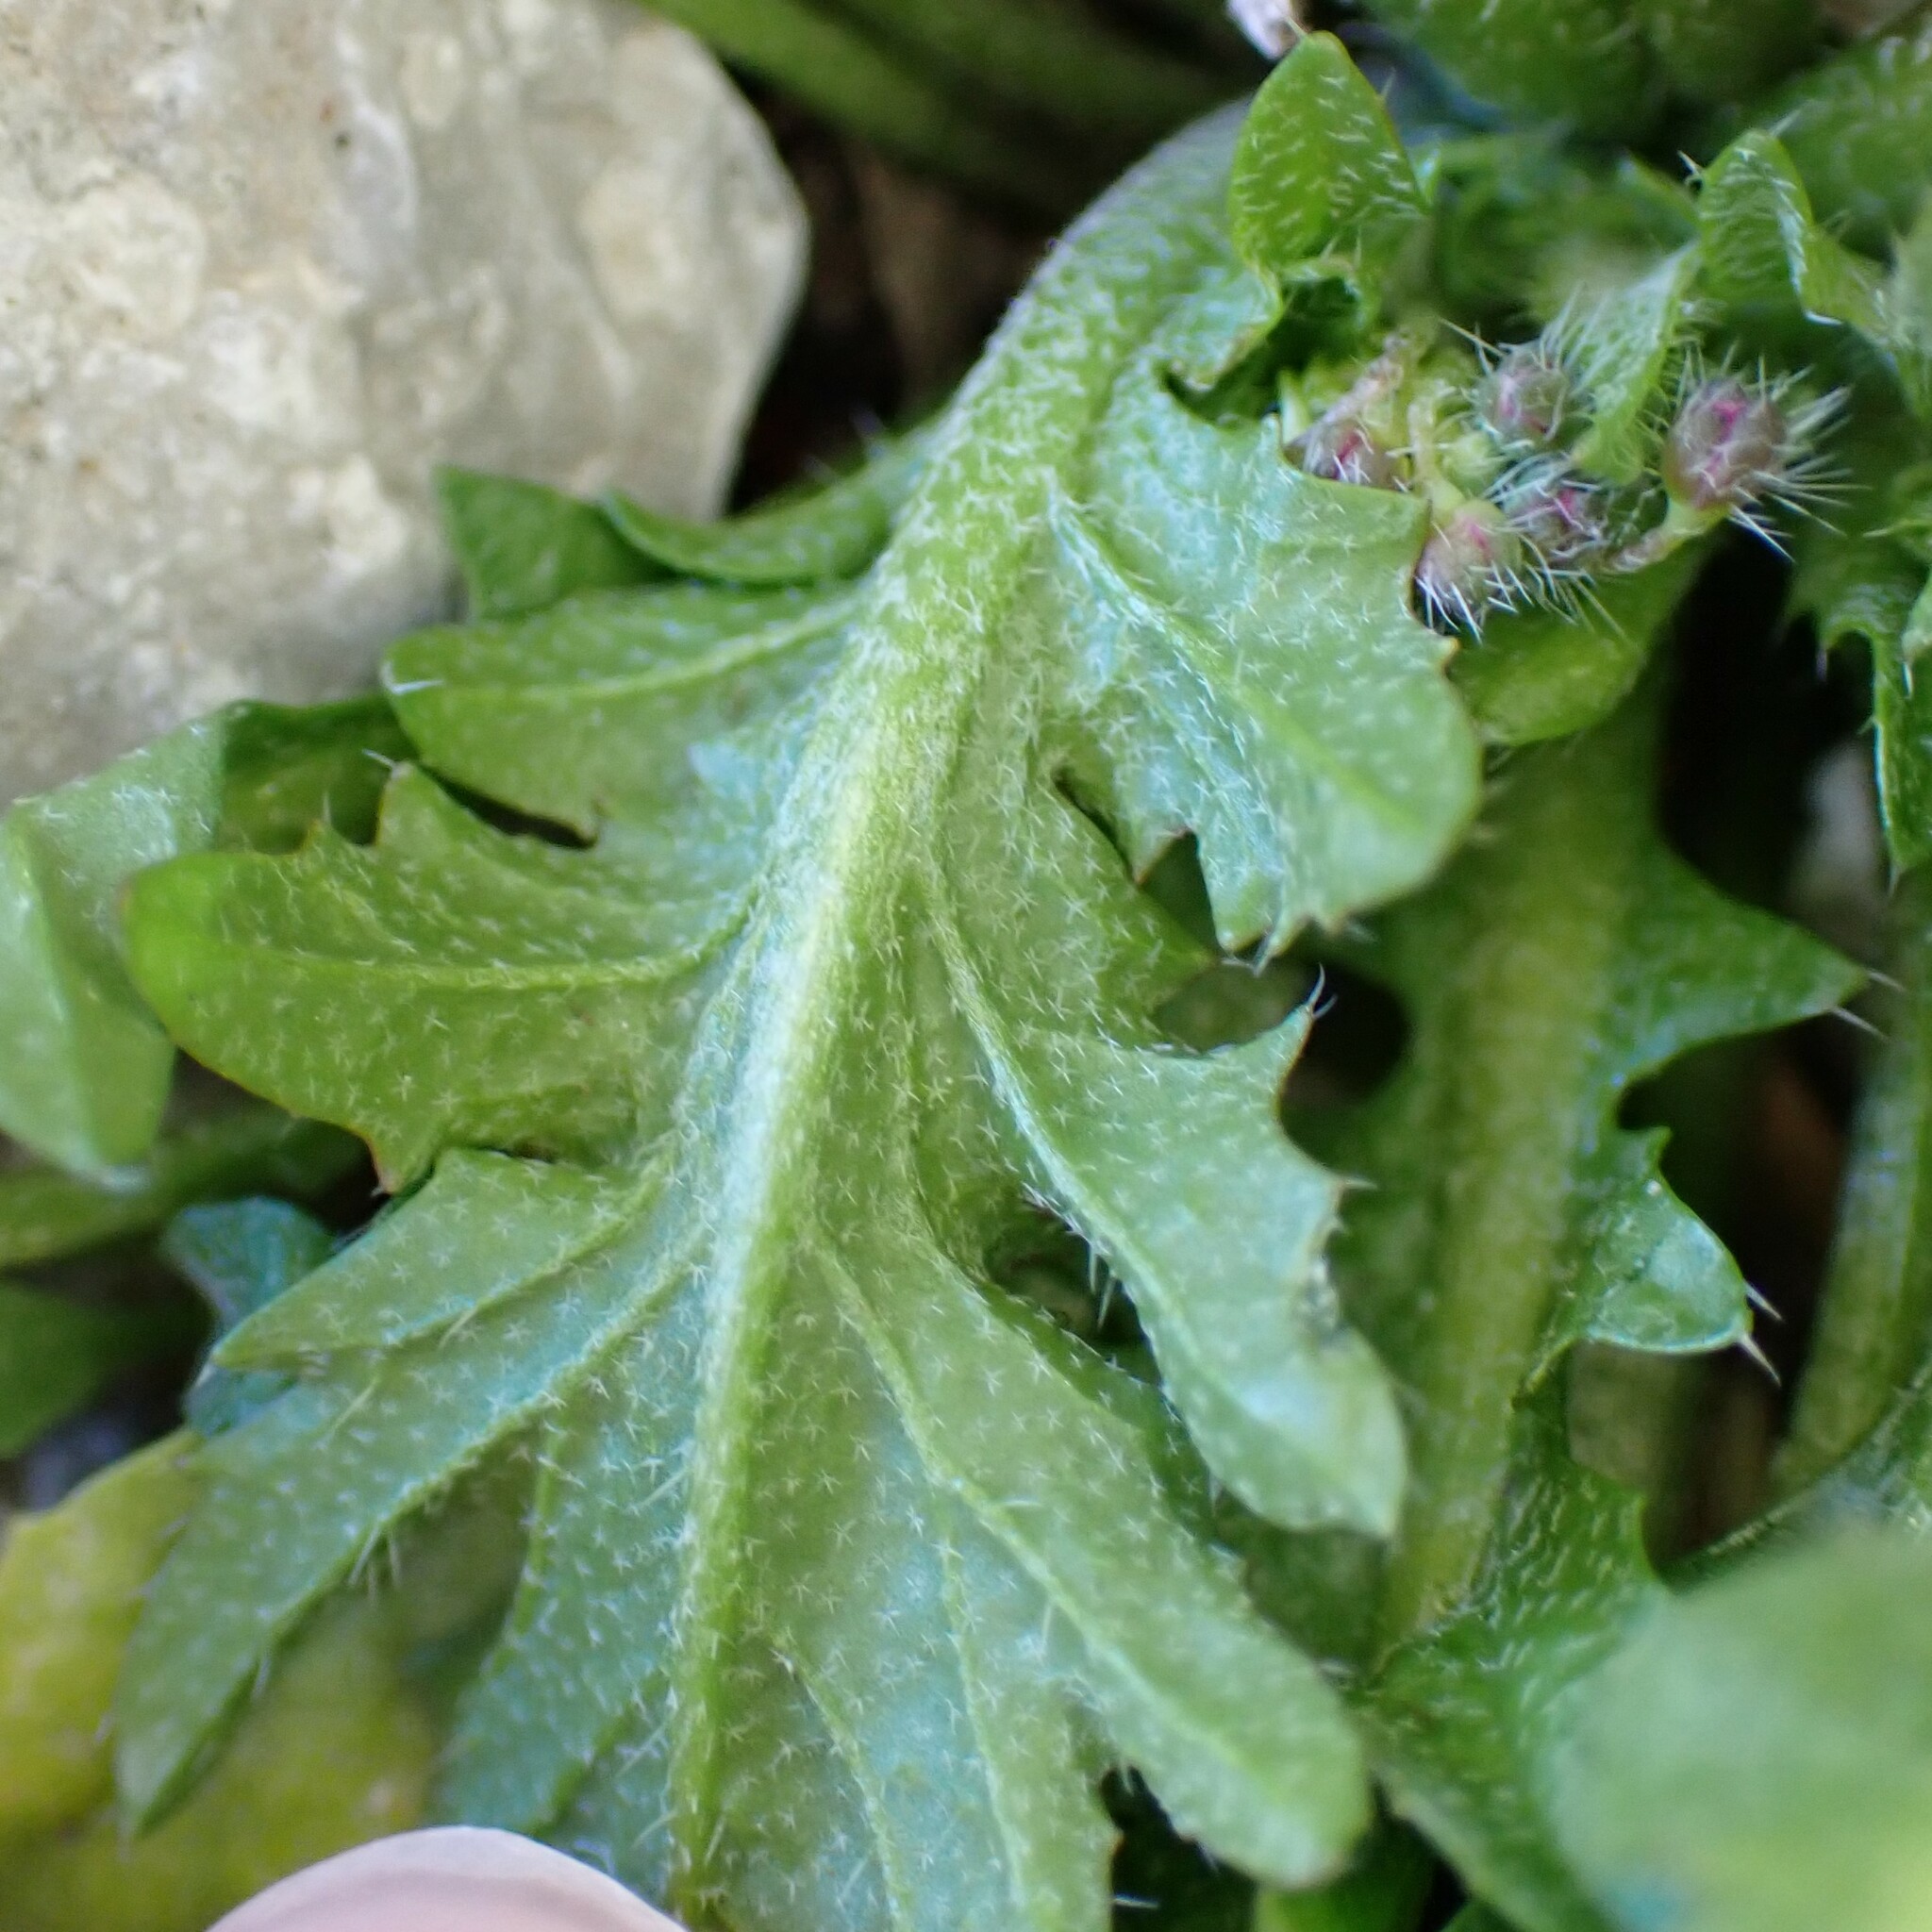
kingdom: Plantae
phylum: Tracheophyta
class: Magnoliopsida
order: Brassicales
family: Brassicaceae
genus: Capsella
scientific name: Capsella bursa-pastoris
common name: Shepherd's purse
